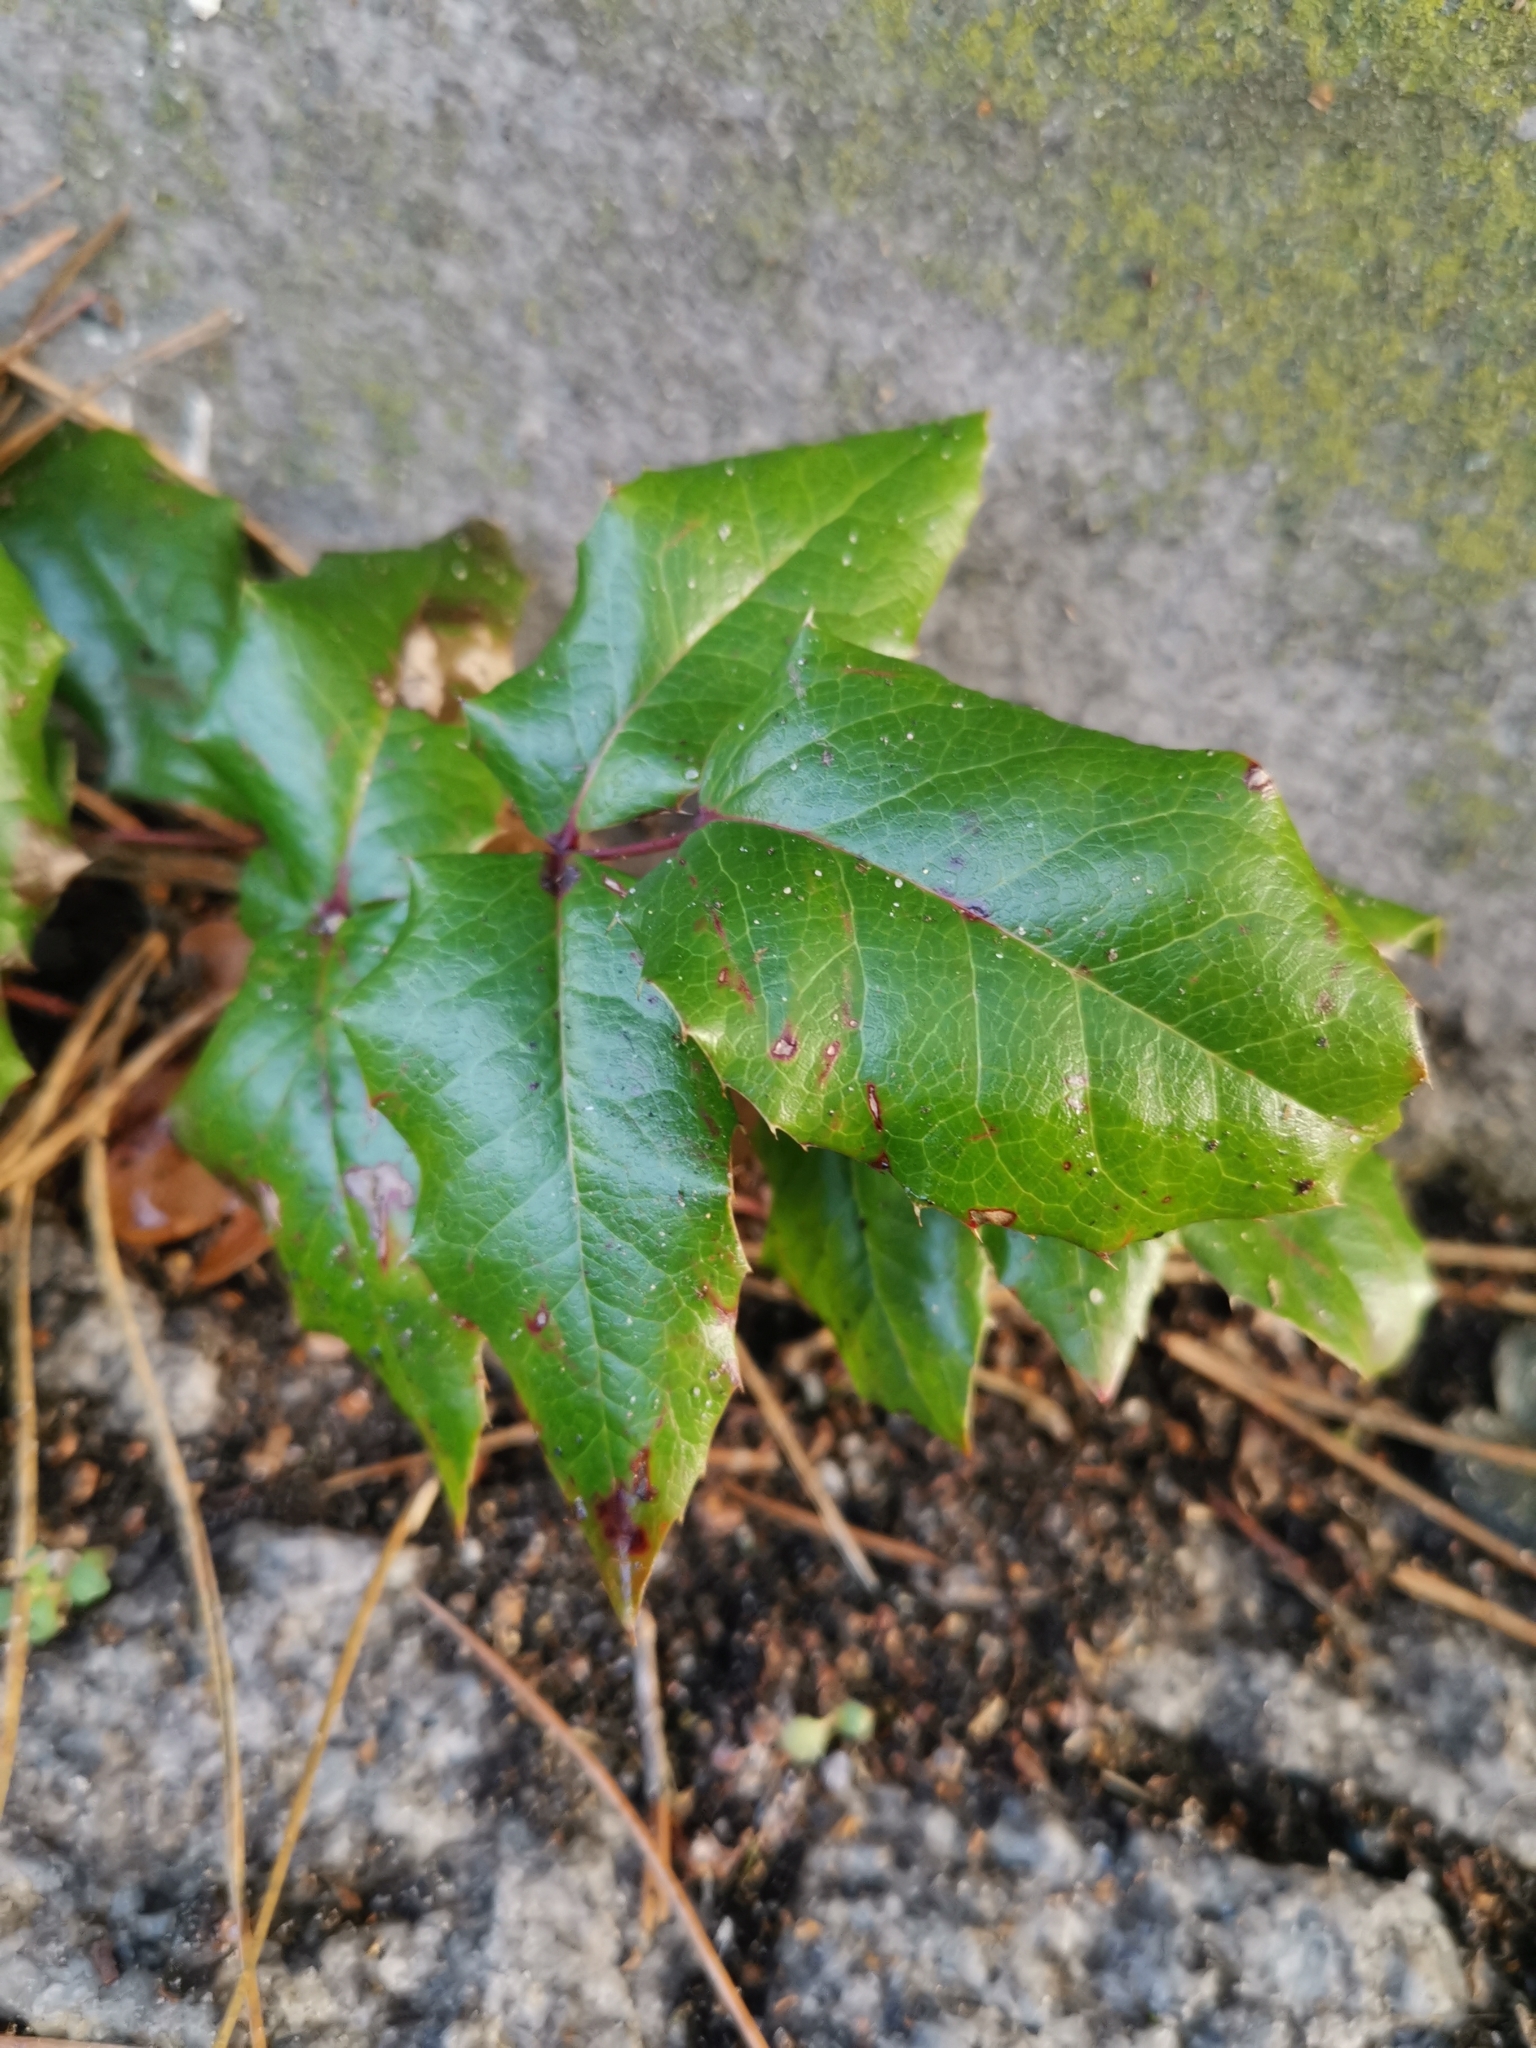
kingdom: Plantae
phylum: Tracheophyta
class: Magnoliopsida
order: Ranunculales
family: Berberidaceae
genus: Mahonia
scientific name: Mahonia aquifolium
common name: Oregon-grape
